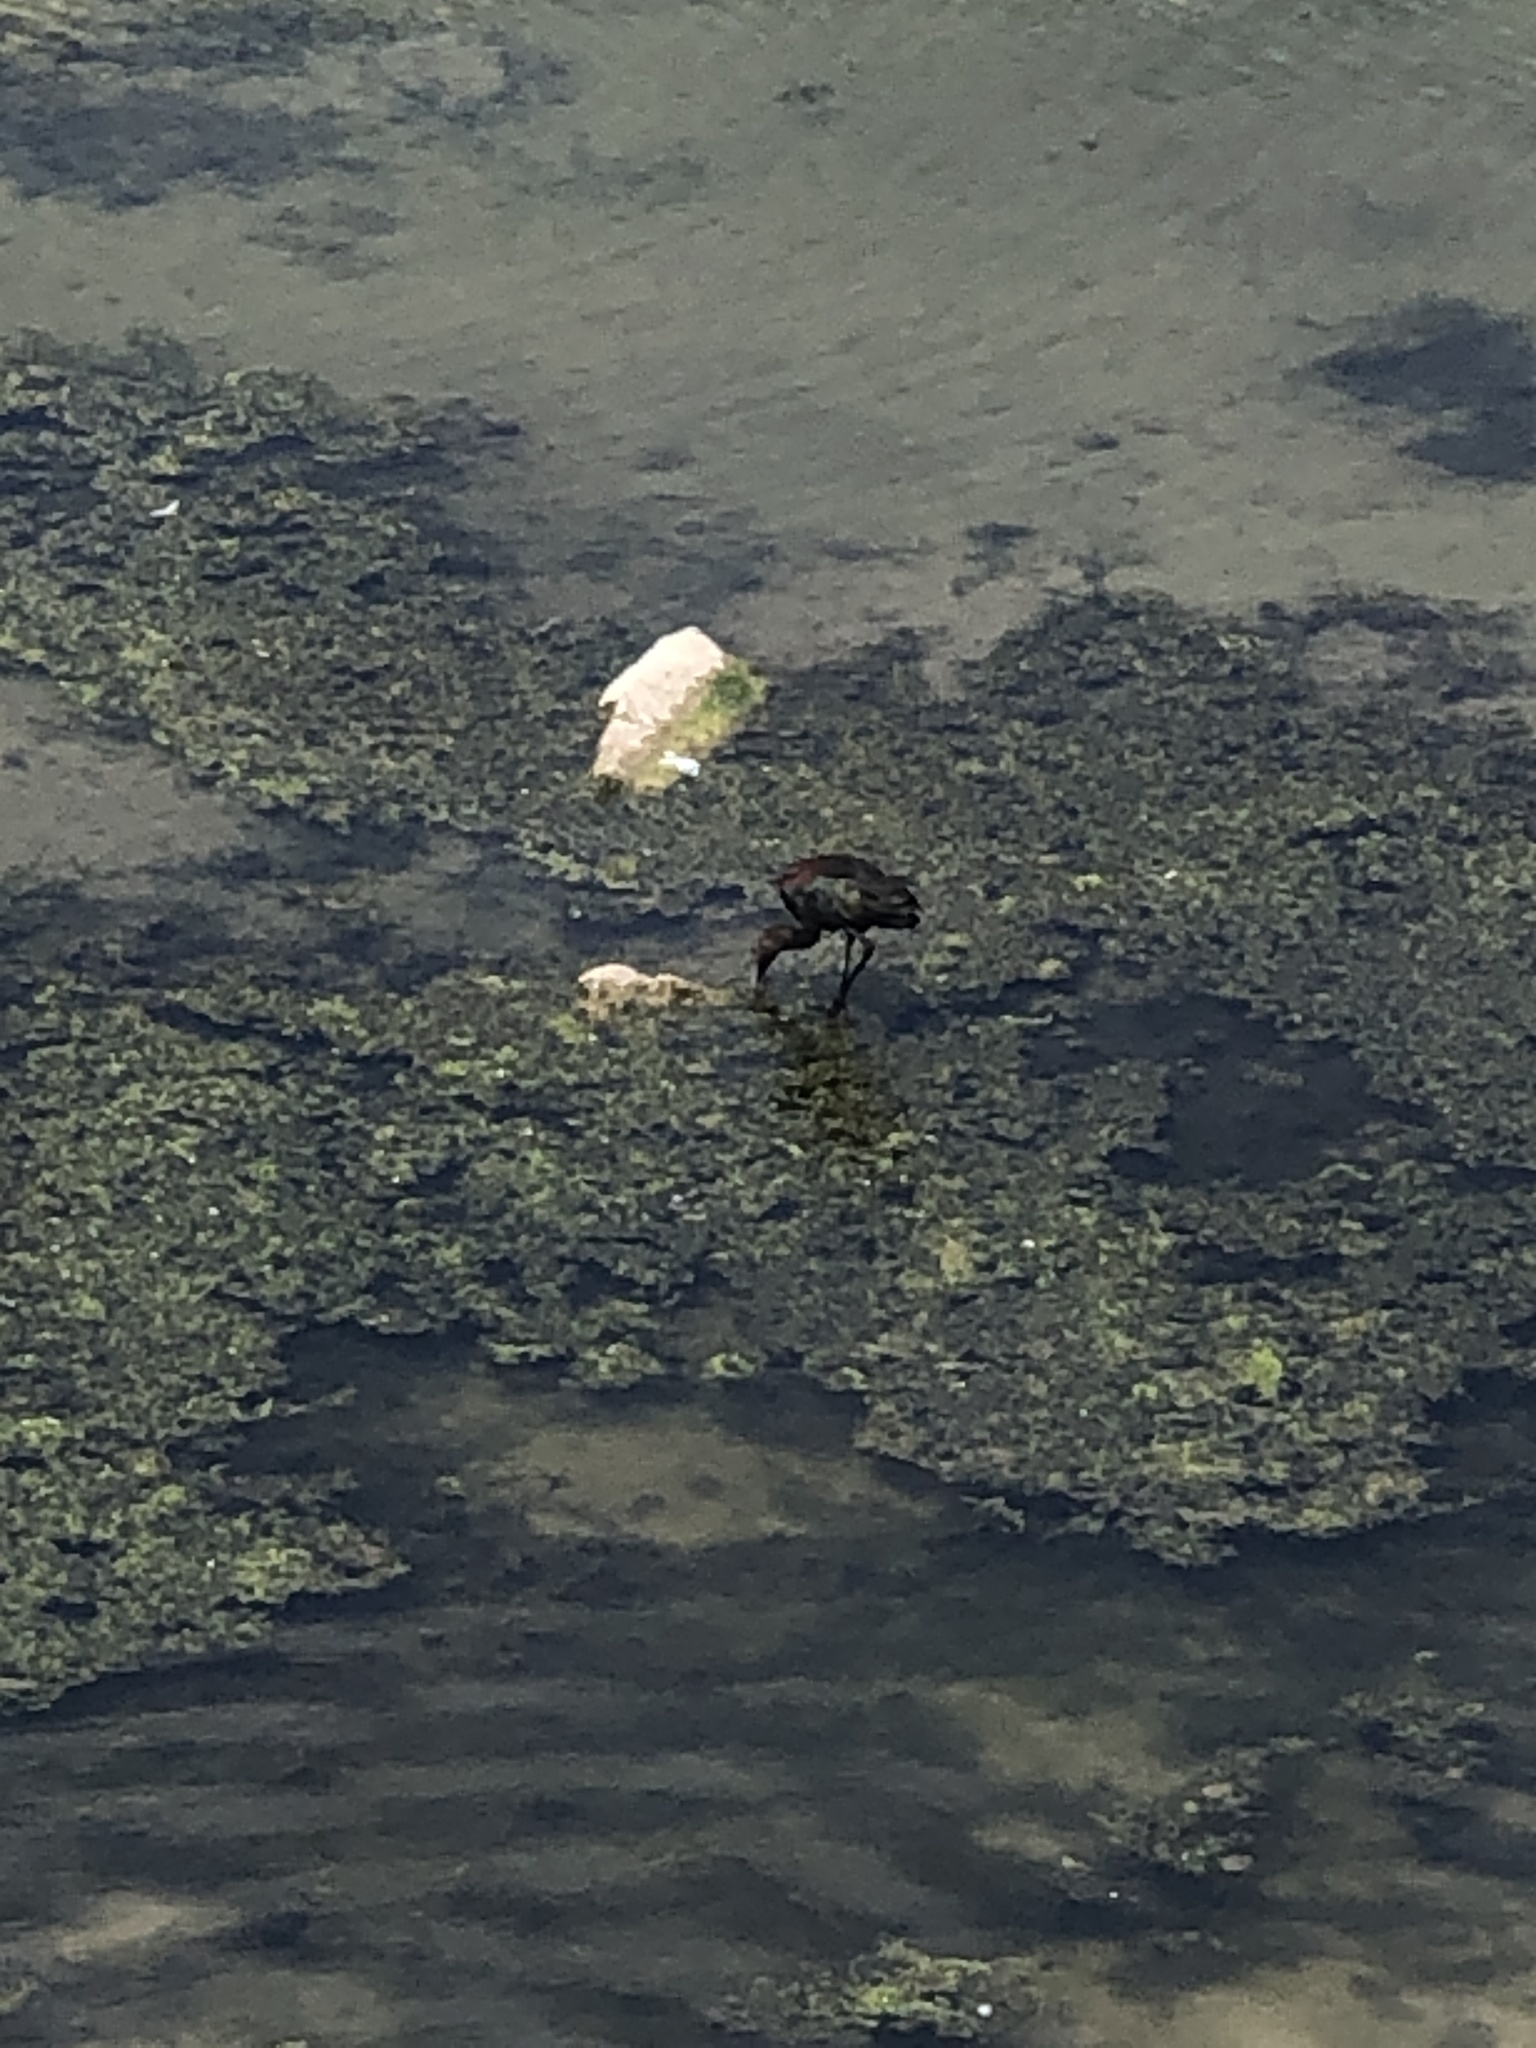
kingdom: Animalia
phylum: Chordata
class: Aves
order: Pelecaniformes
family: Threskiornithidae
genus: Plegadis
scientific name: Plegadis chihi
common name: White-faced ibis
